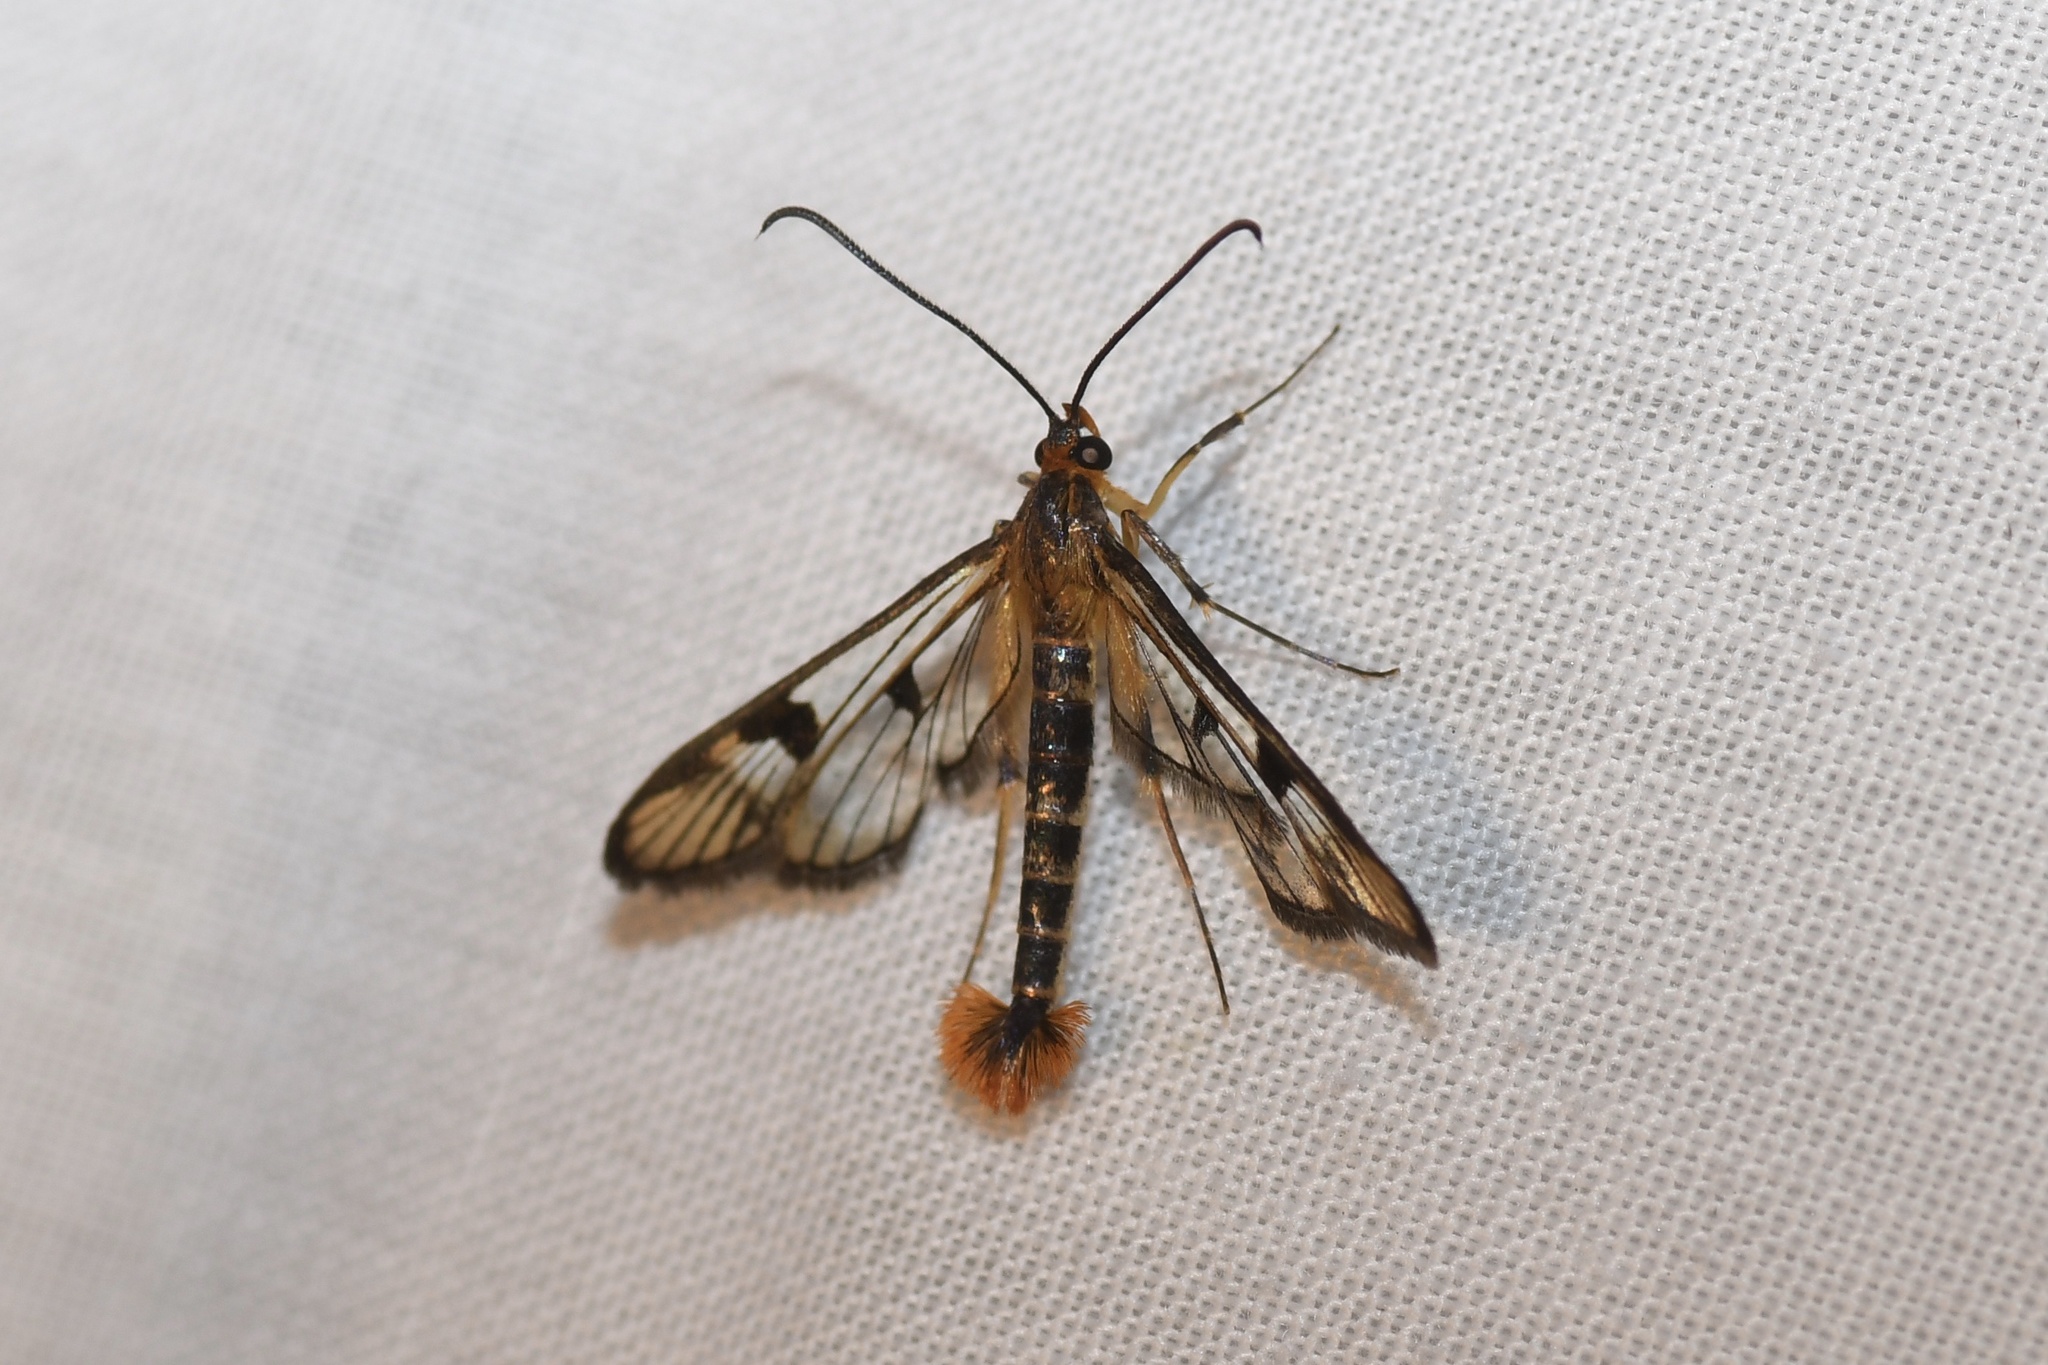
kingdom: Animalia
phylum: Arthropoda
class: Insecta
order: Lepidoptera
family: Sesiidae
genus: Synanthedon
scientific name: Synanthedon acerni
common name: Maple callus borer moth
